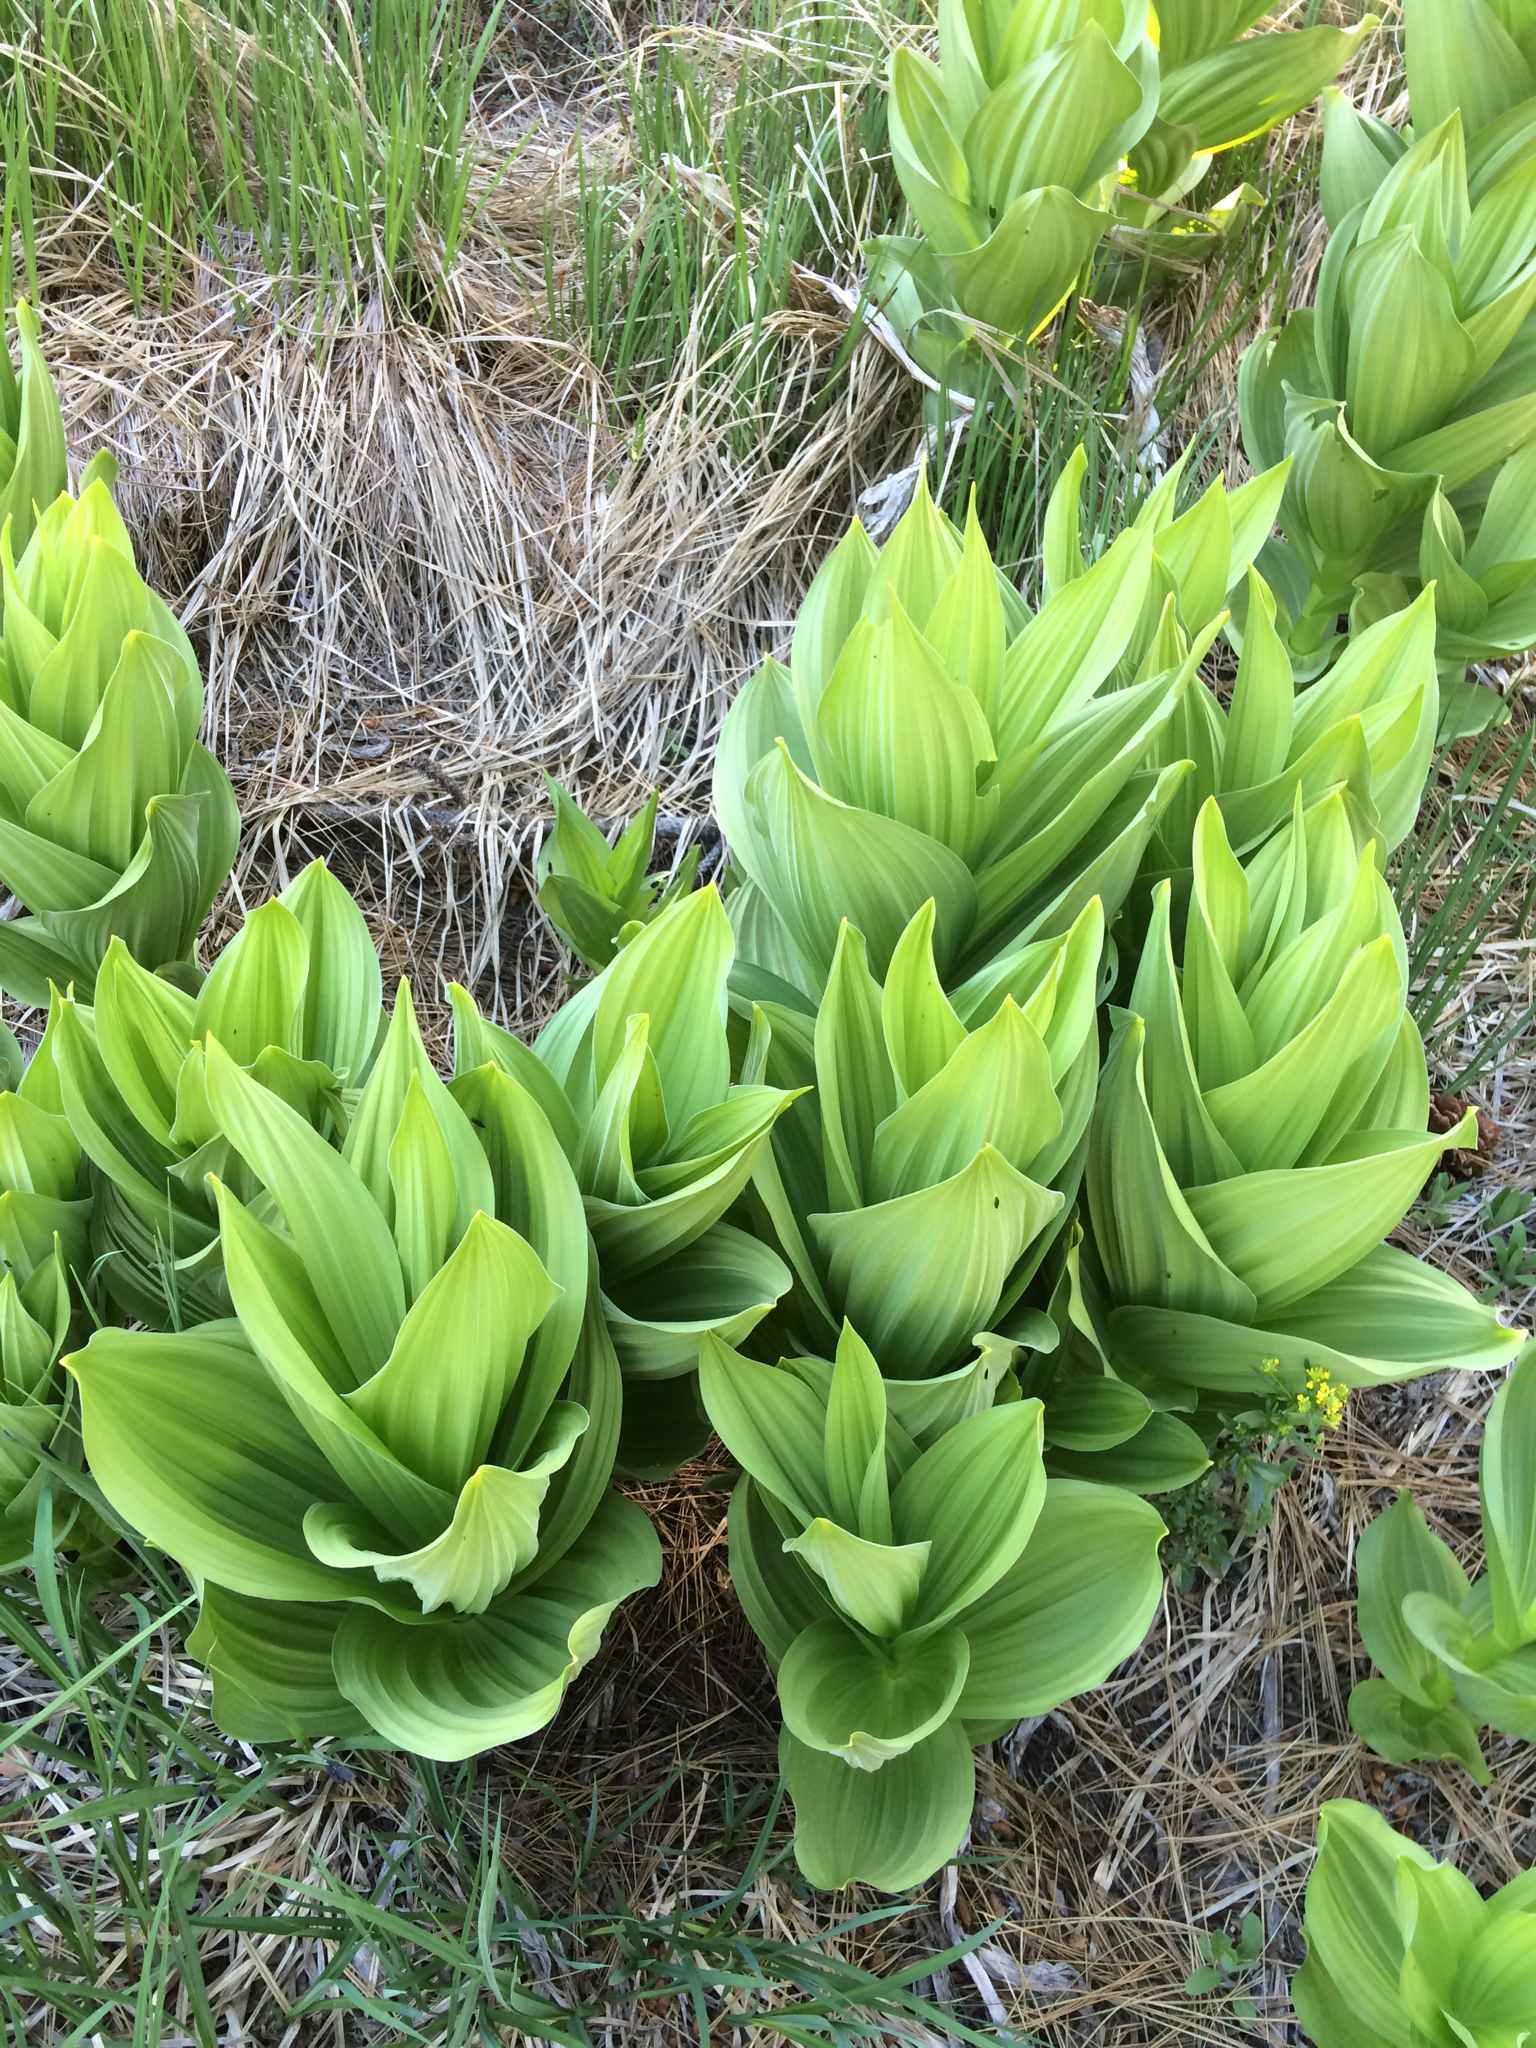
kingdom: Plantae
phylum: Tracheophyta
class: Liliopsida
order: Liliales
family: Melanthiaceae
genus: Veratrum
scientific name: Veratrum californicum
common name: California veratrum
